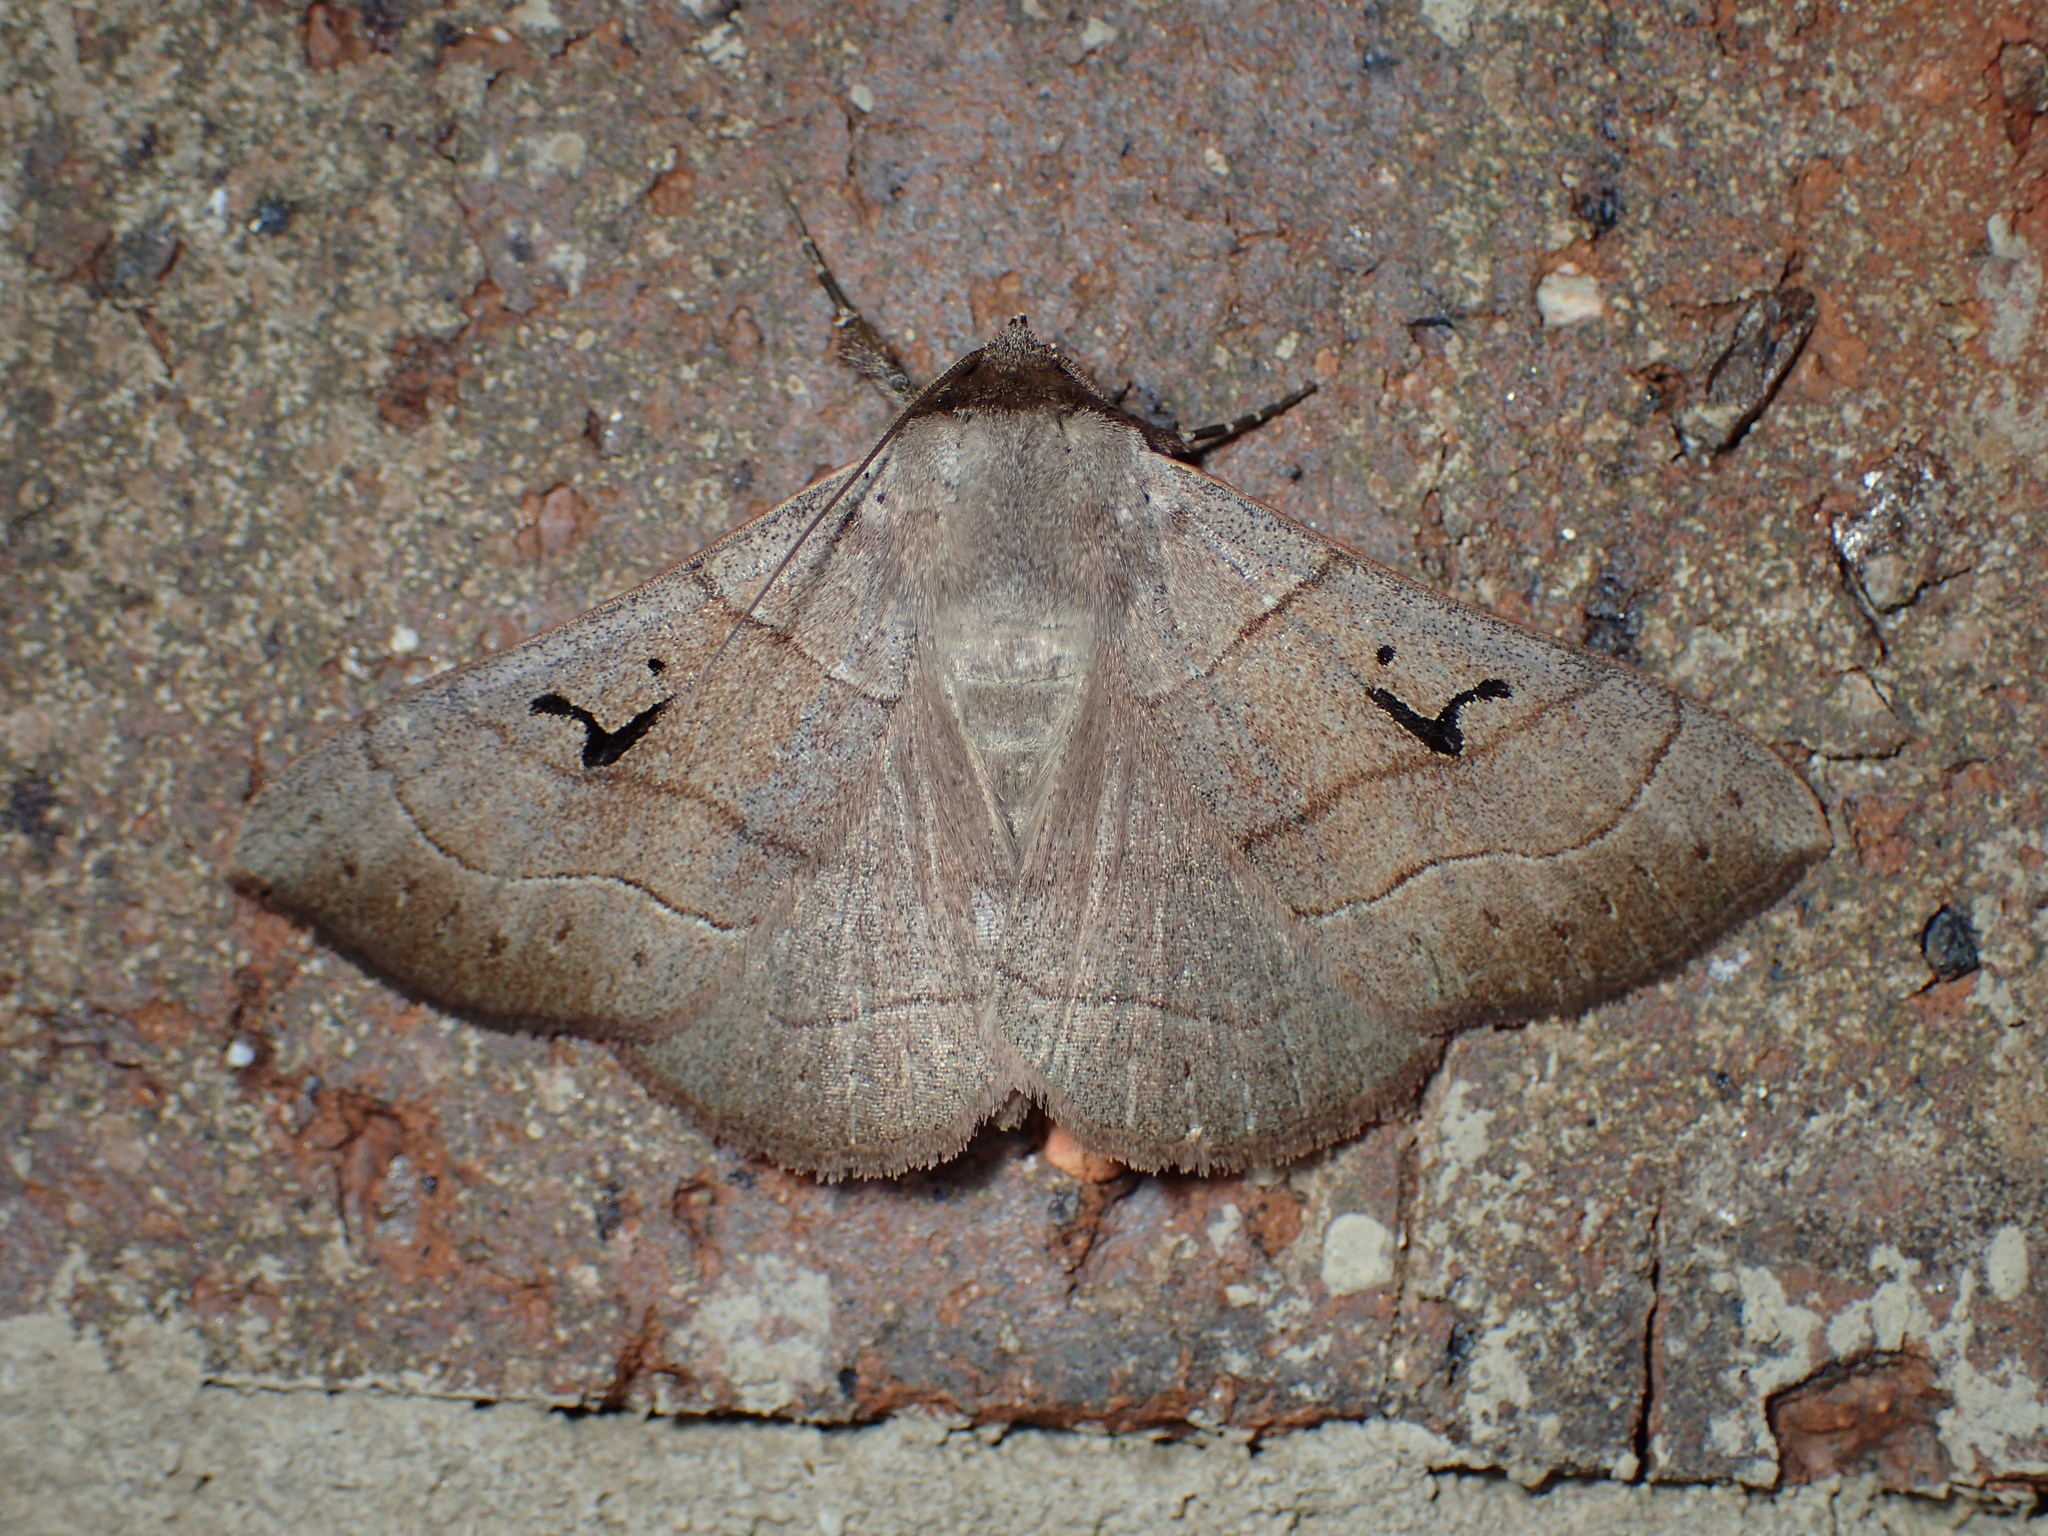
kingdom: Animalia
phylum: Arthropoda
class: Insecta
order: Lepidoptera
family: Erebidae
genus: Panopoda
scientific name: Panopoda carneicosta
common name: Brown panopoda moth
